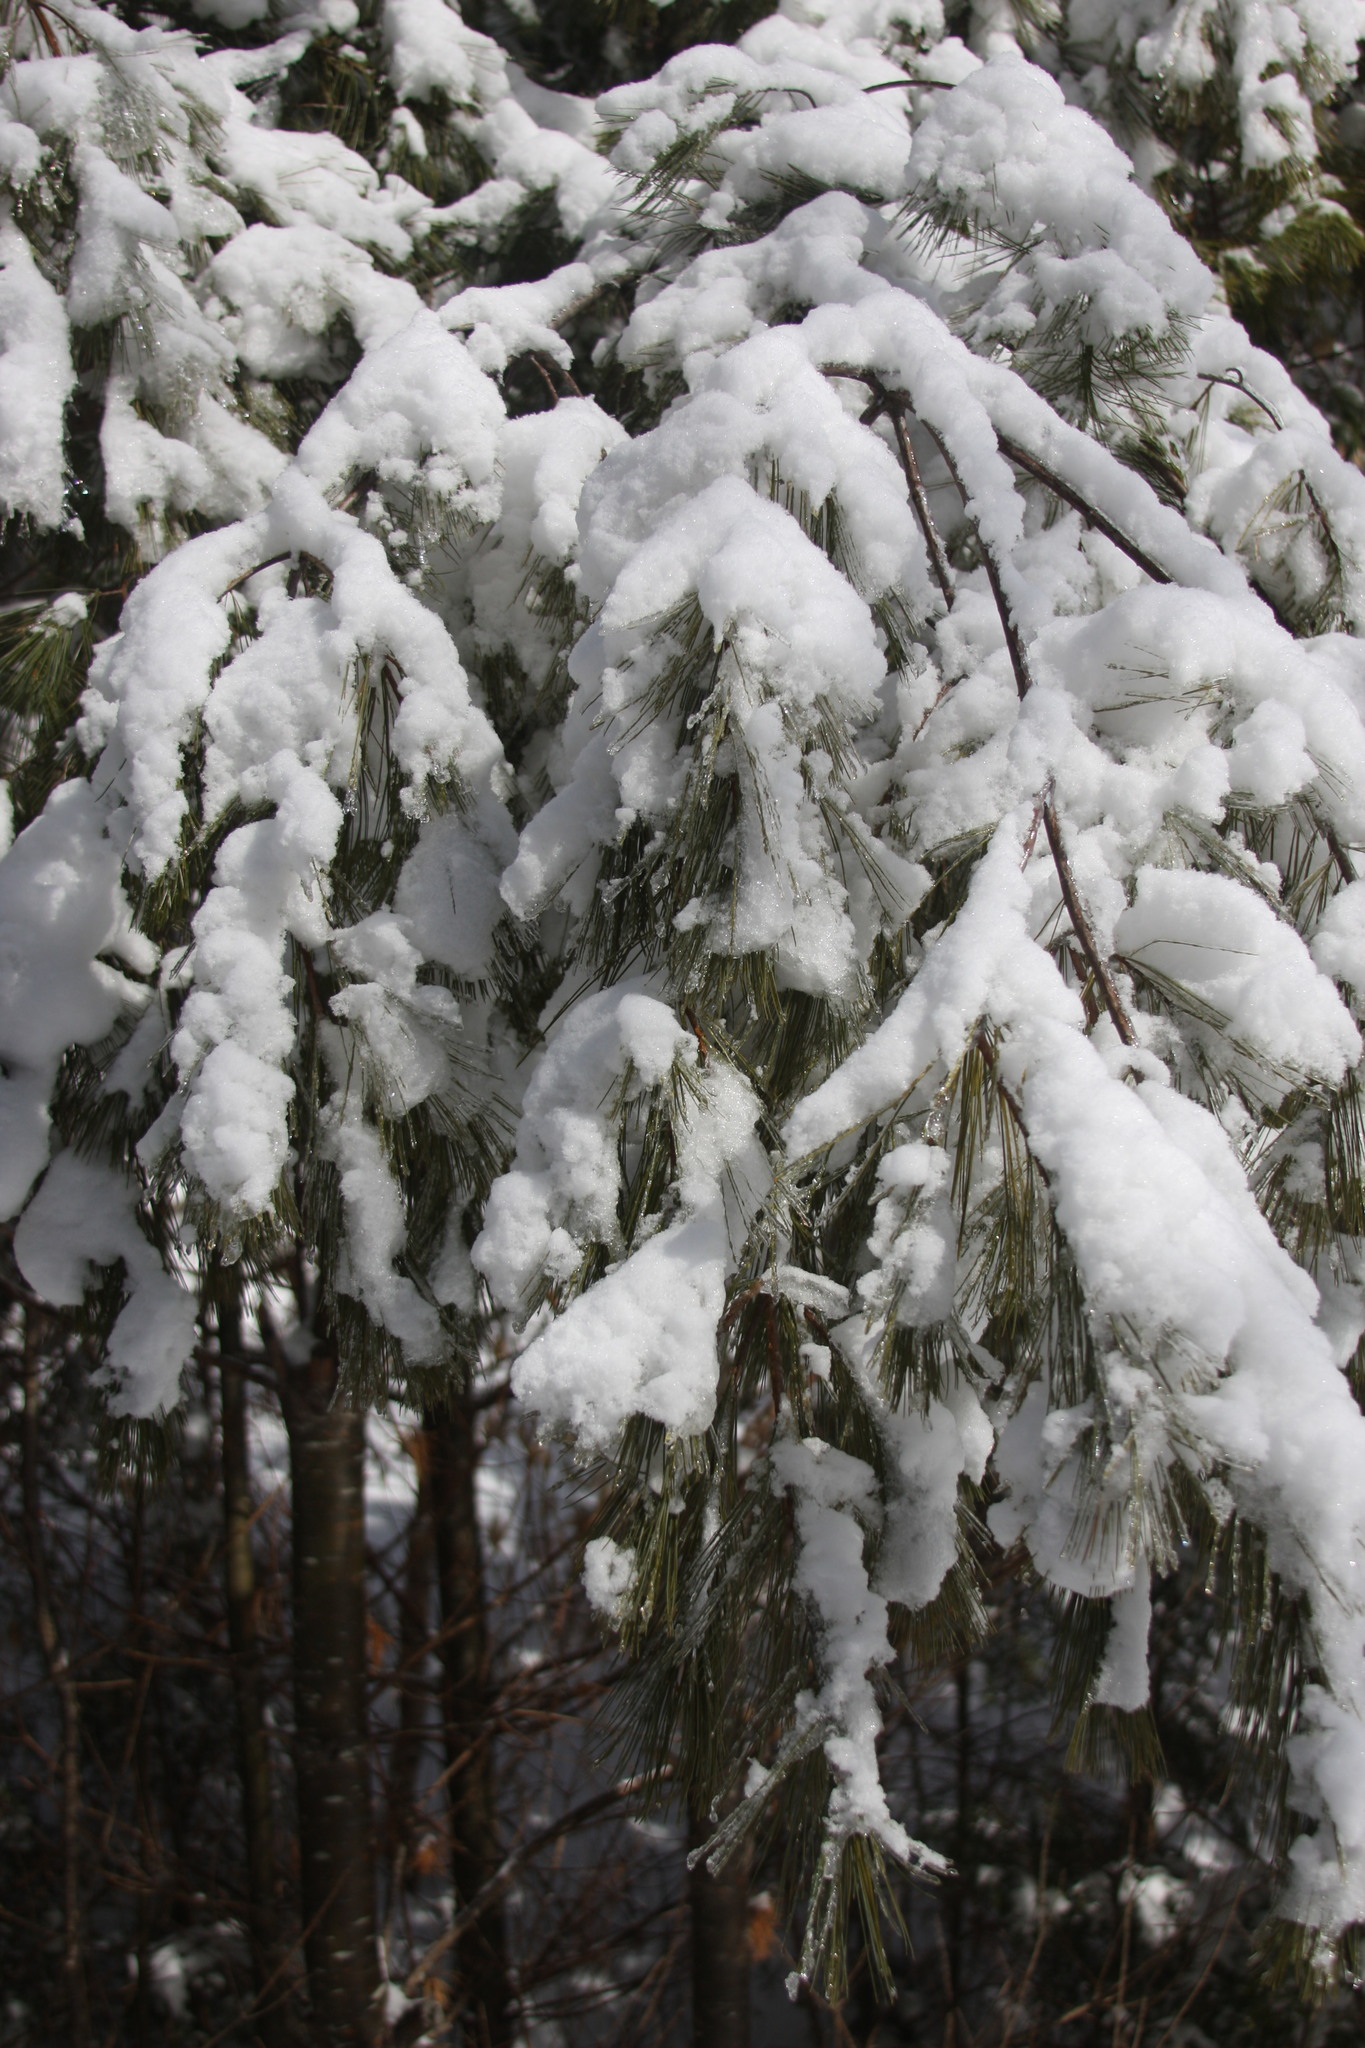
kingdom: Plantae
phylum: Tracheophyta
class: Pinopsida
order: Pinales
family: Pinaceae
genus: Pinus
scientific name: Pinus strobus
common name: Weymouth pine
